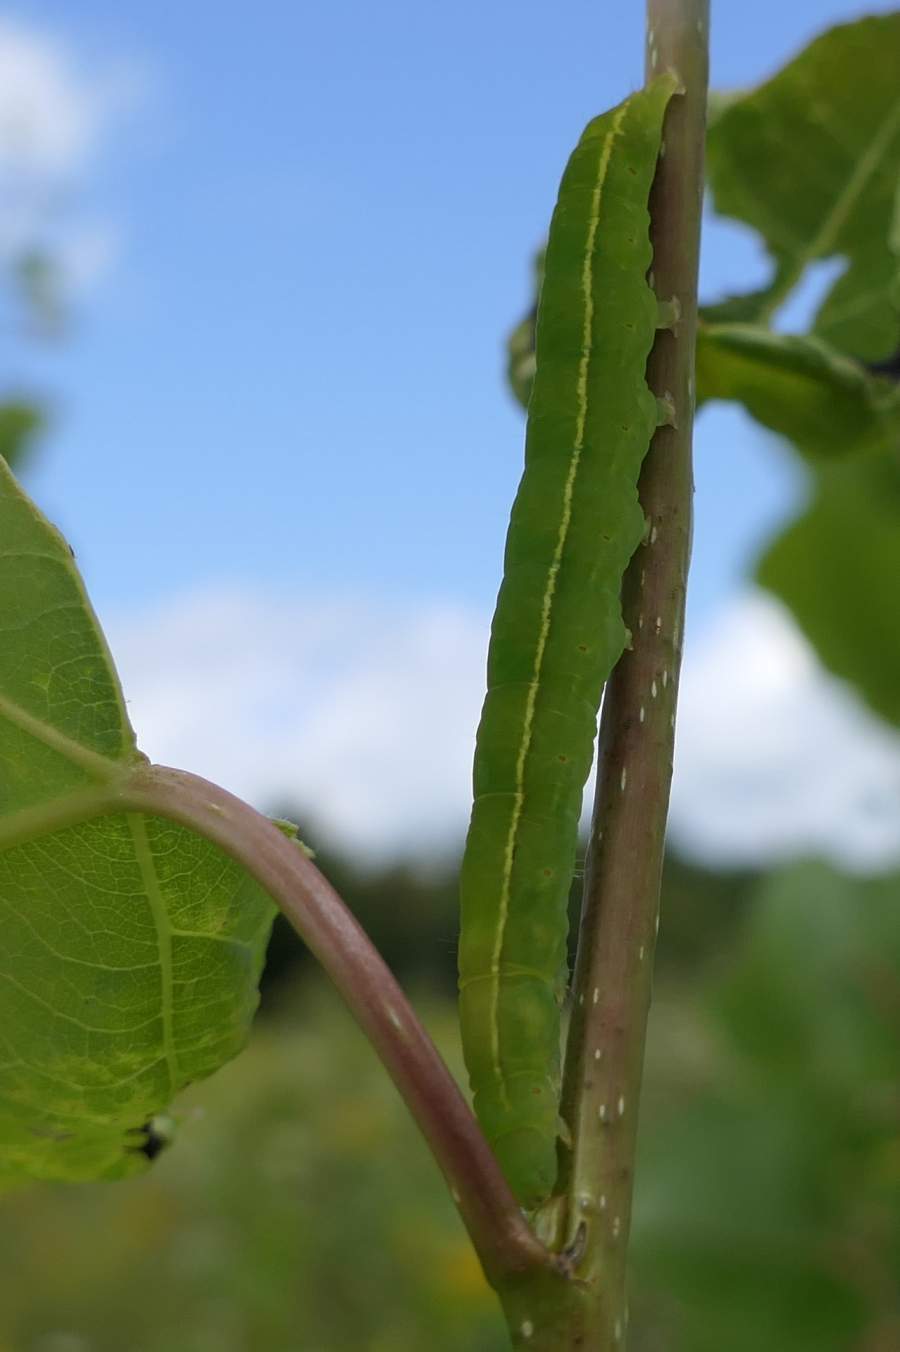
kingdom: Animalia
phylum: Arthropoda
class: Insecta
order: Lepidoptera
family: Erebidae
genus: Scoliopteryx
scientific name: Scoliopteryx libatrix
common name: Herald
